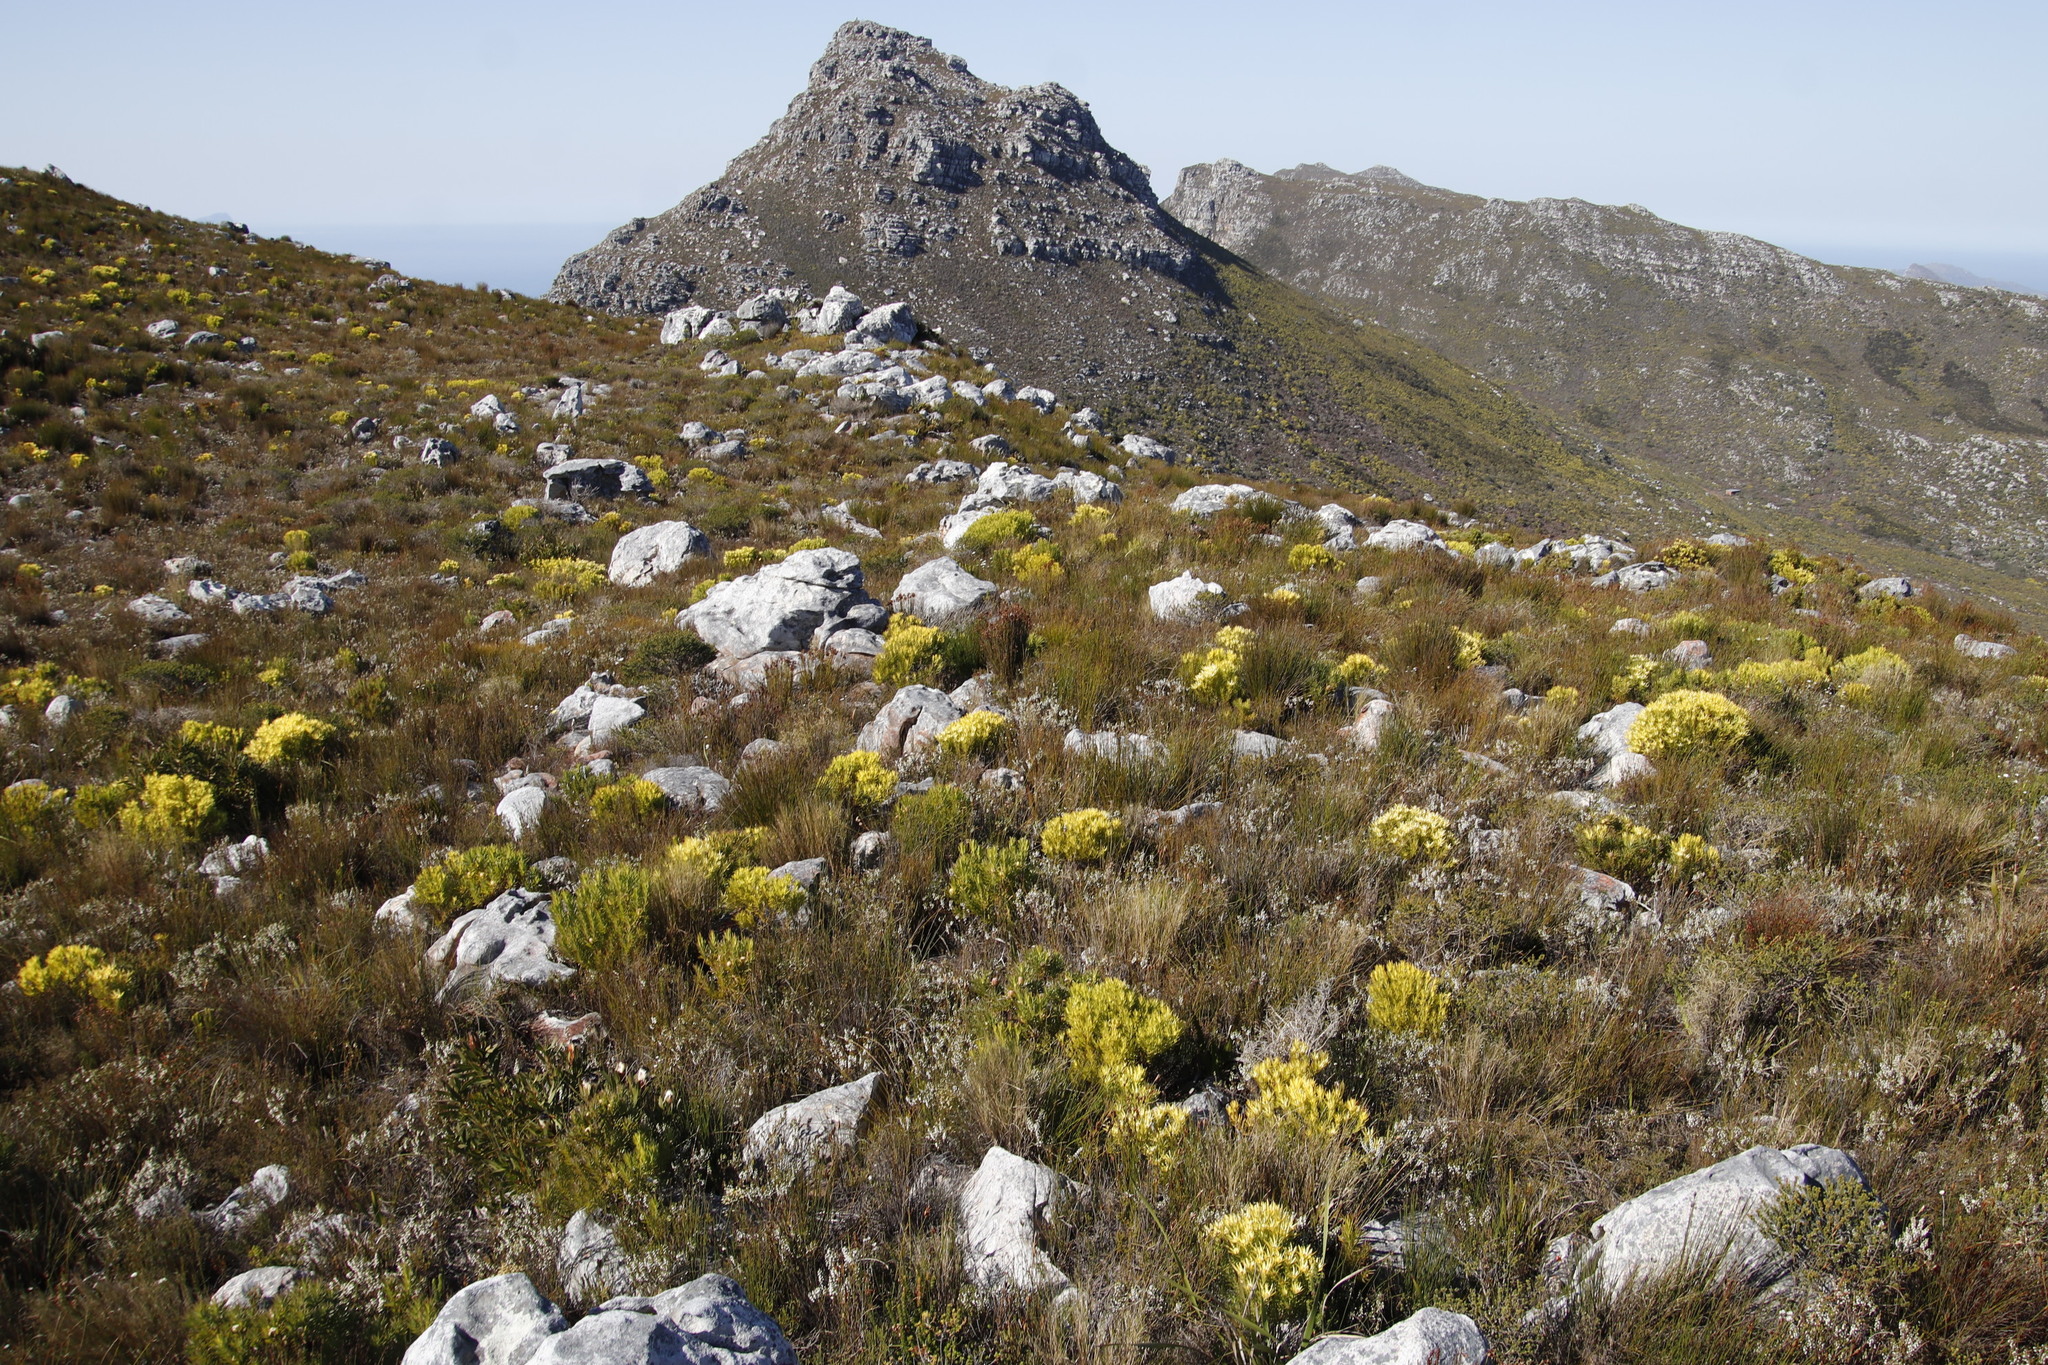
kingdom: Plantae
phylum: Tracheophyta
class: Magnoliopsida
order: Proteales
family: Proteaceae
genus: Leucadendron
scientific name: Leucadendron xanthoconus
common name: Sickle-leaf conebush
